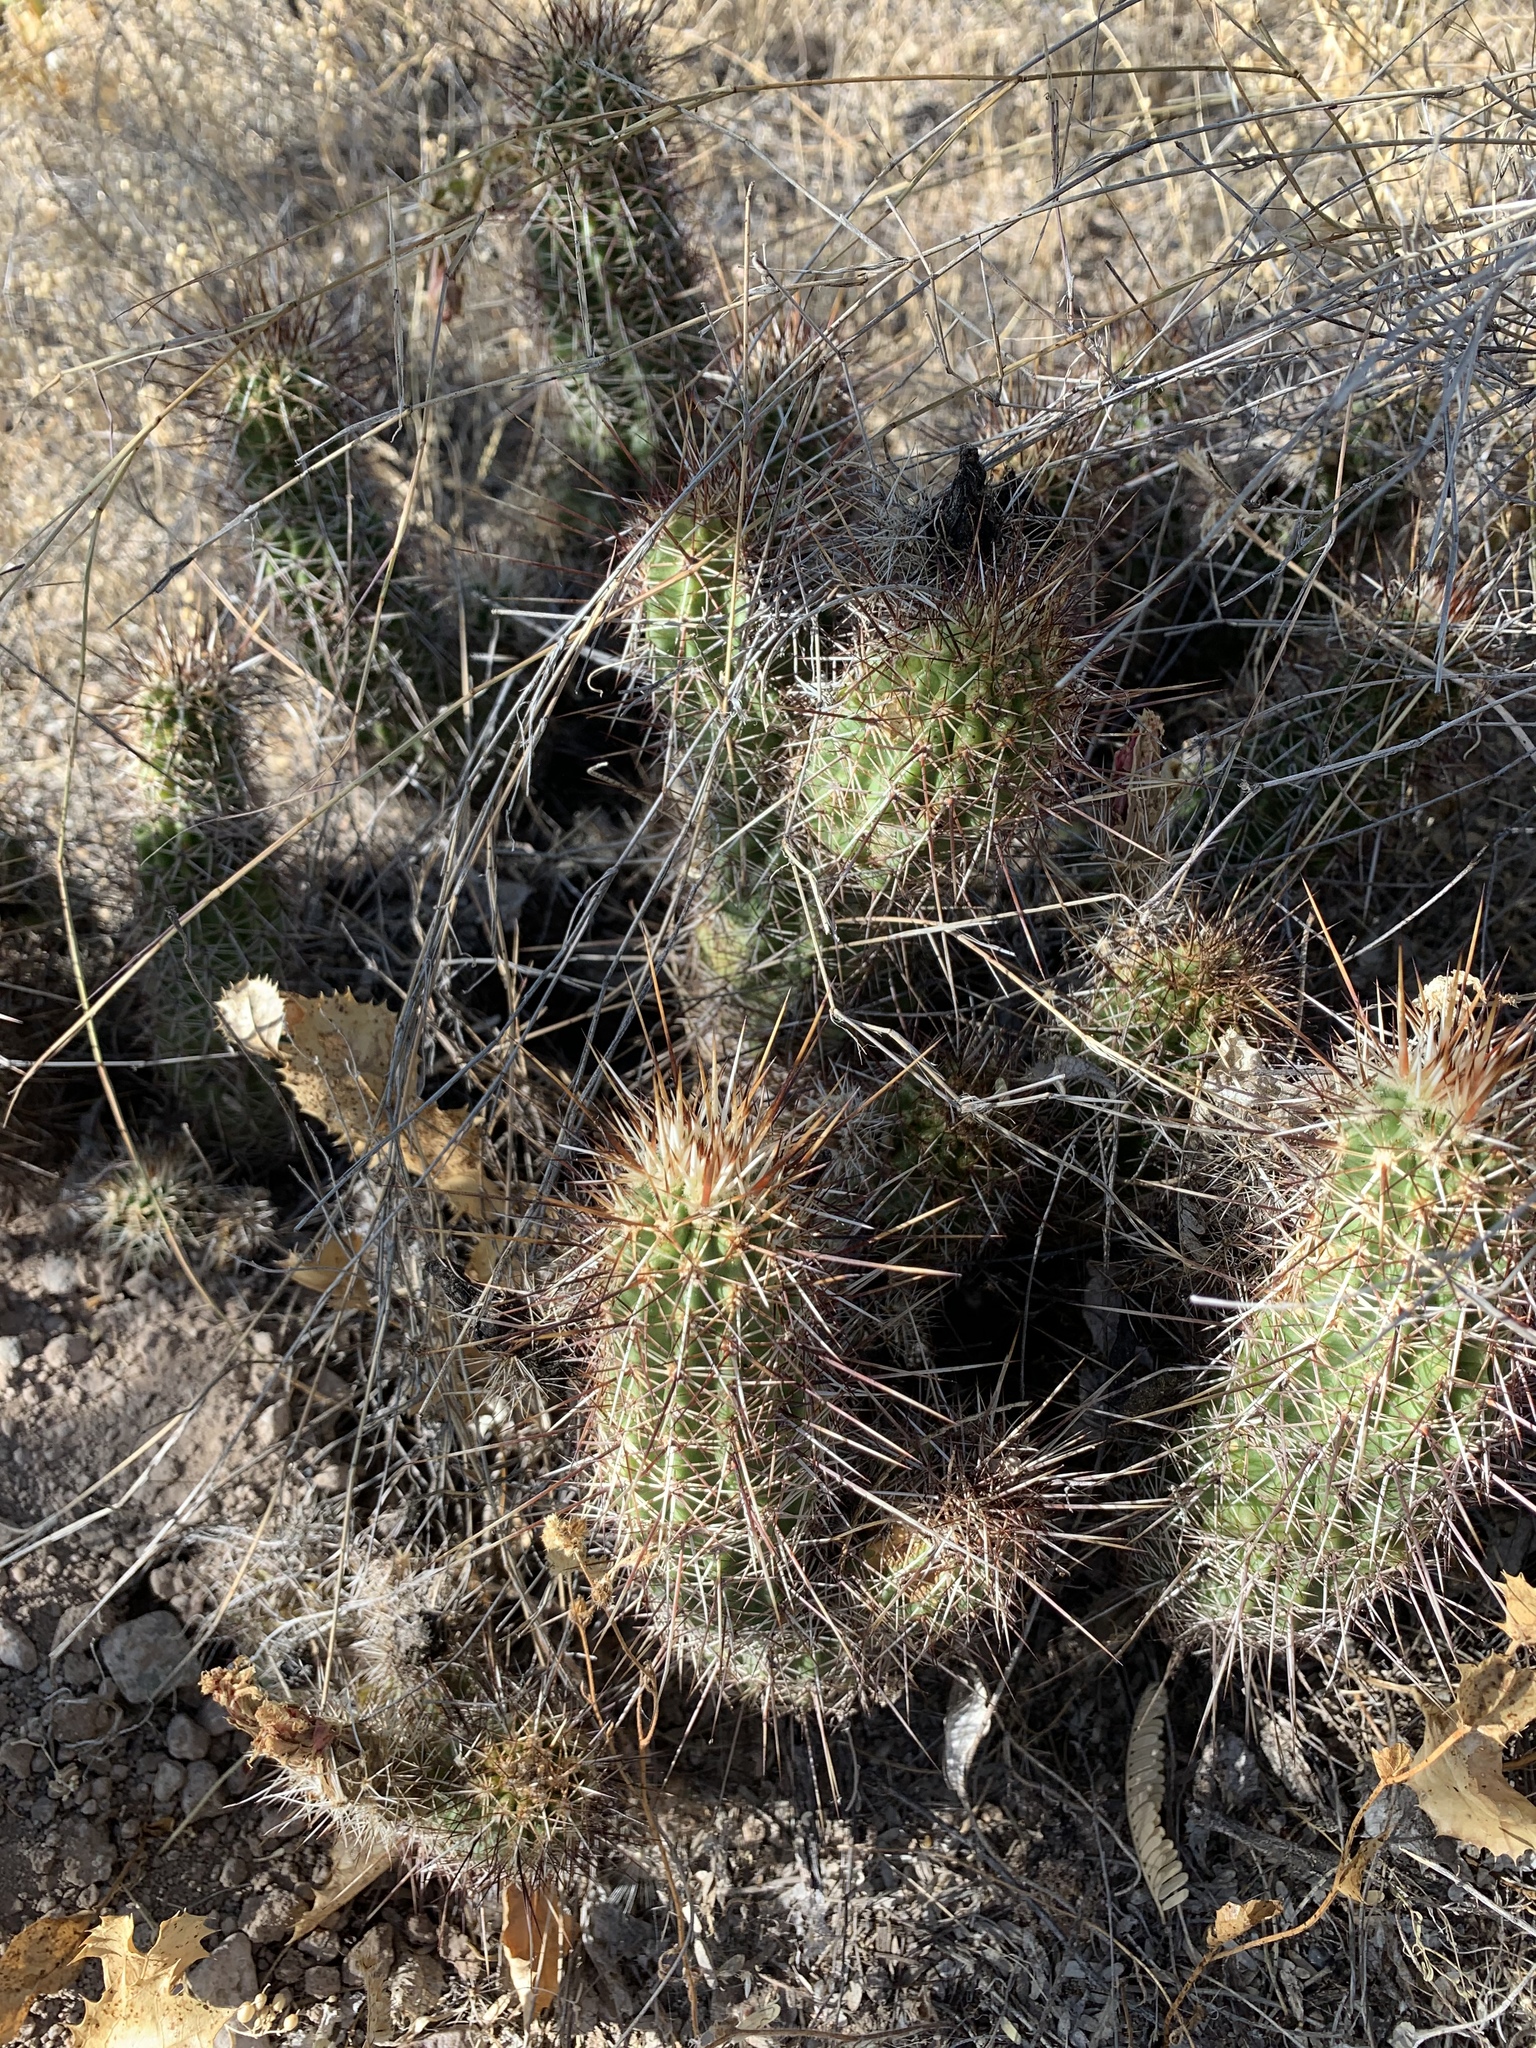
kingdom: Plantae
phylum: Tracheophyta
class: Magnoliopsida
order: Caryophyllales
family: Cactaceae
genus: Echinocereus
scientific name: Echinocereus fasciculatus
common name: Bundle hedgehog
